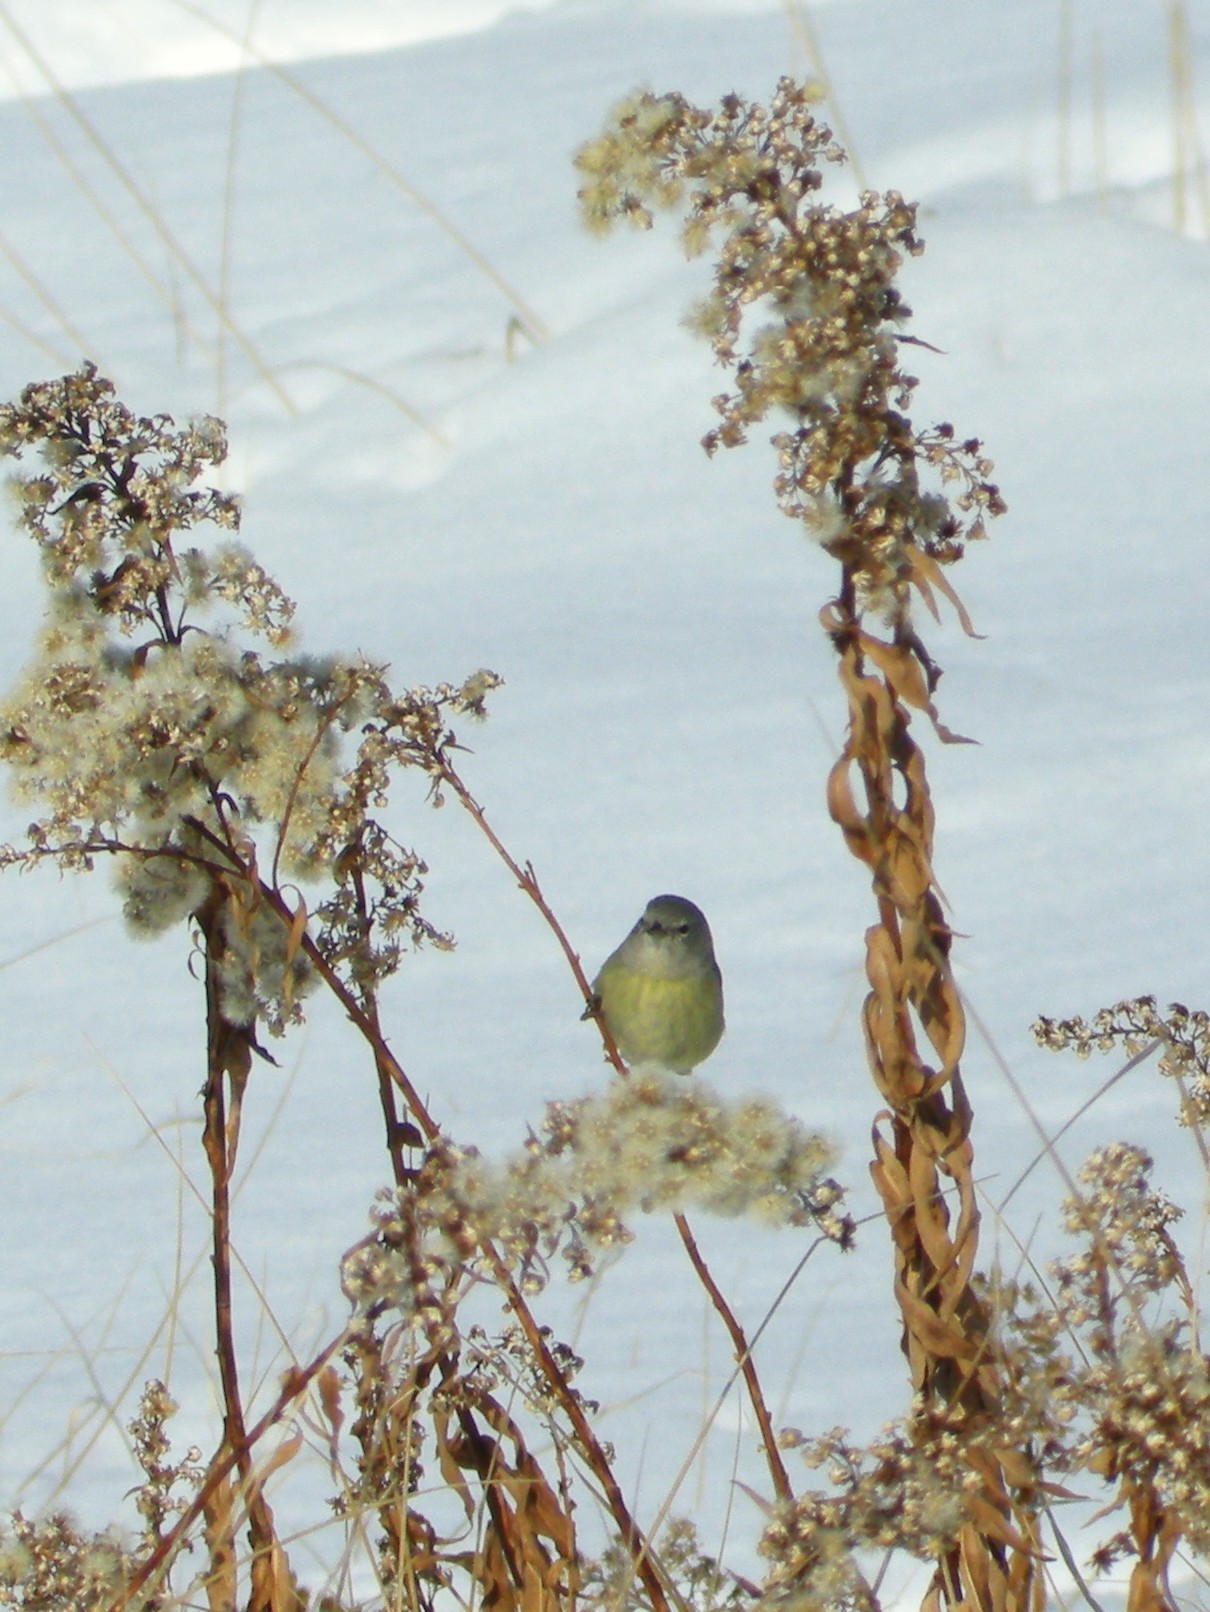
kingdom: Animalia
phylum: Chordata
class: Aves
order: Passeriformes
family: Parulidae
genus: Leiothlypis
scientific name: Leiothlypis celata
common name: Orange-crowned warbler
